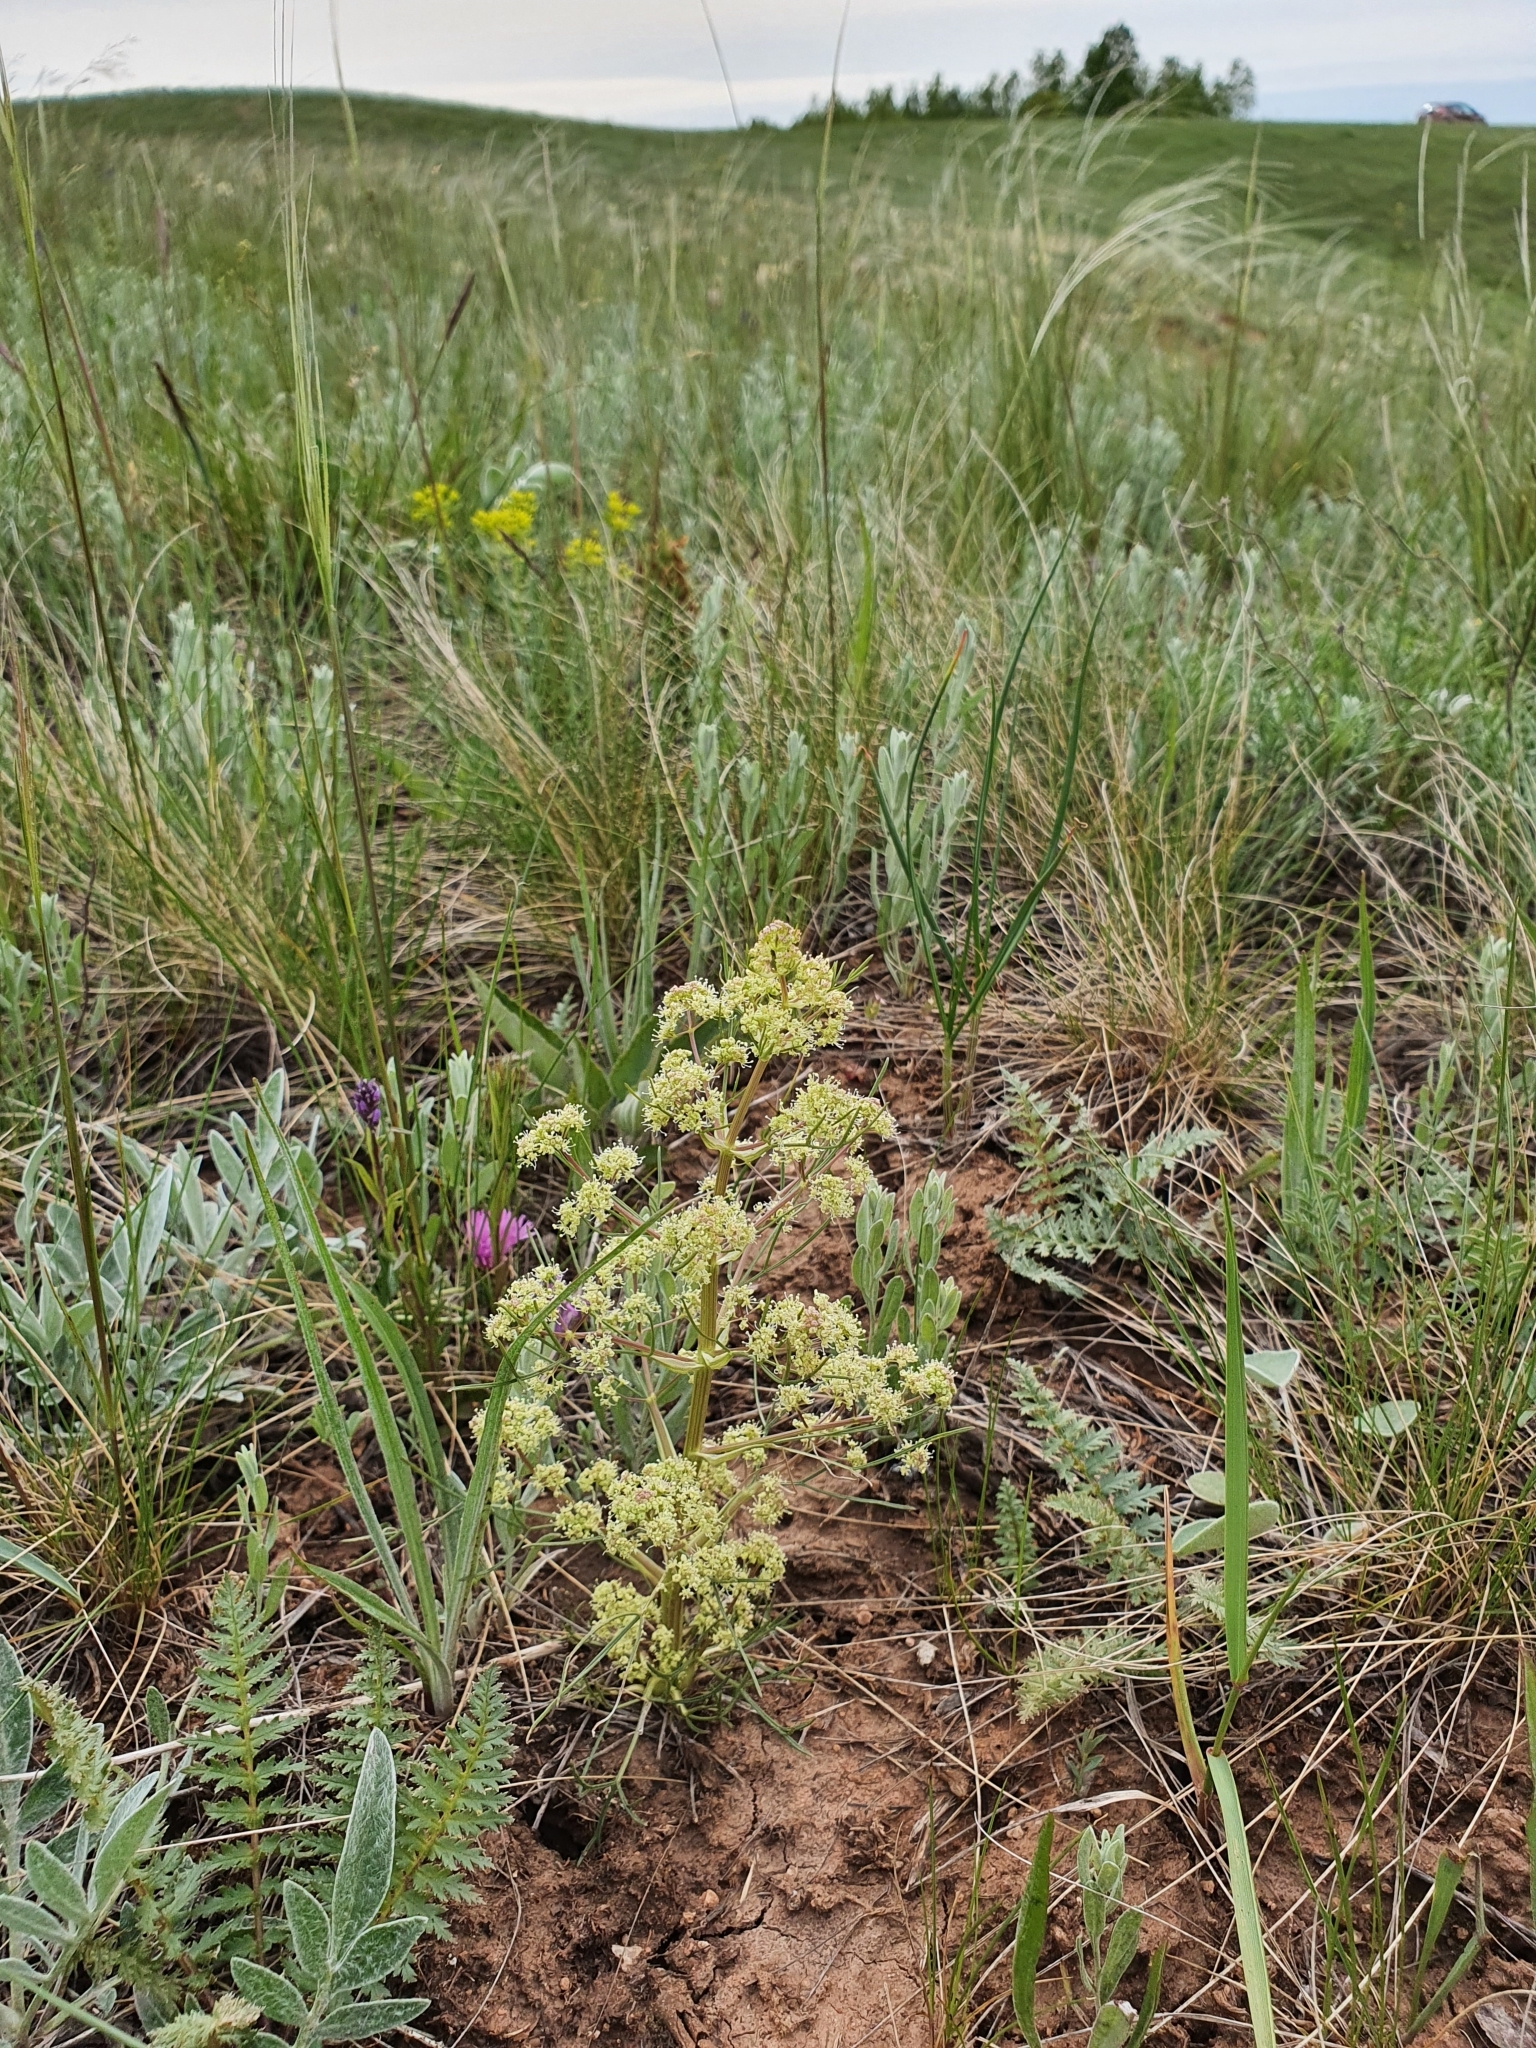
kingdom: Plantae
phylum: Tracheophyta
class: Magnoliopsida
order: Apiales
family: Apiaceae
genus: Trinia
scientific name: Trinia multicaulis
